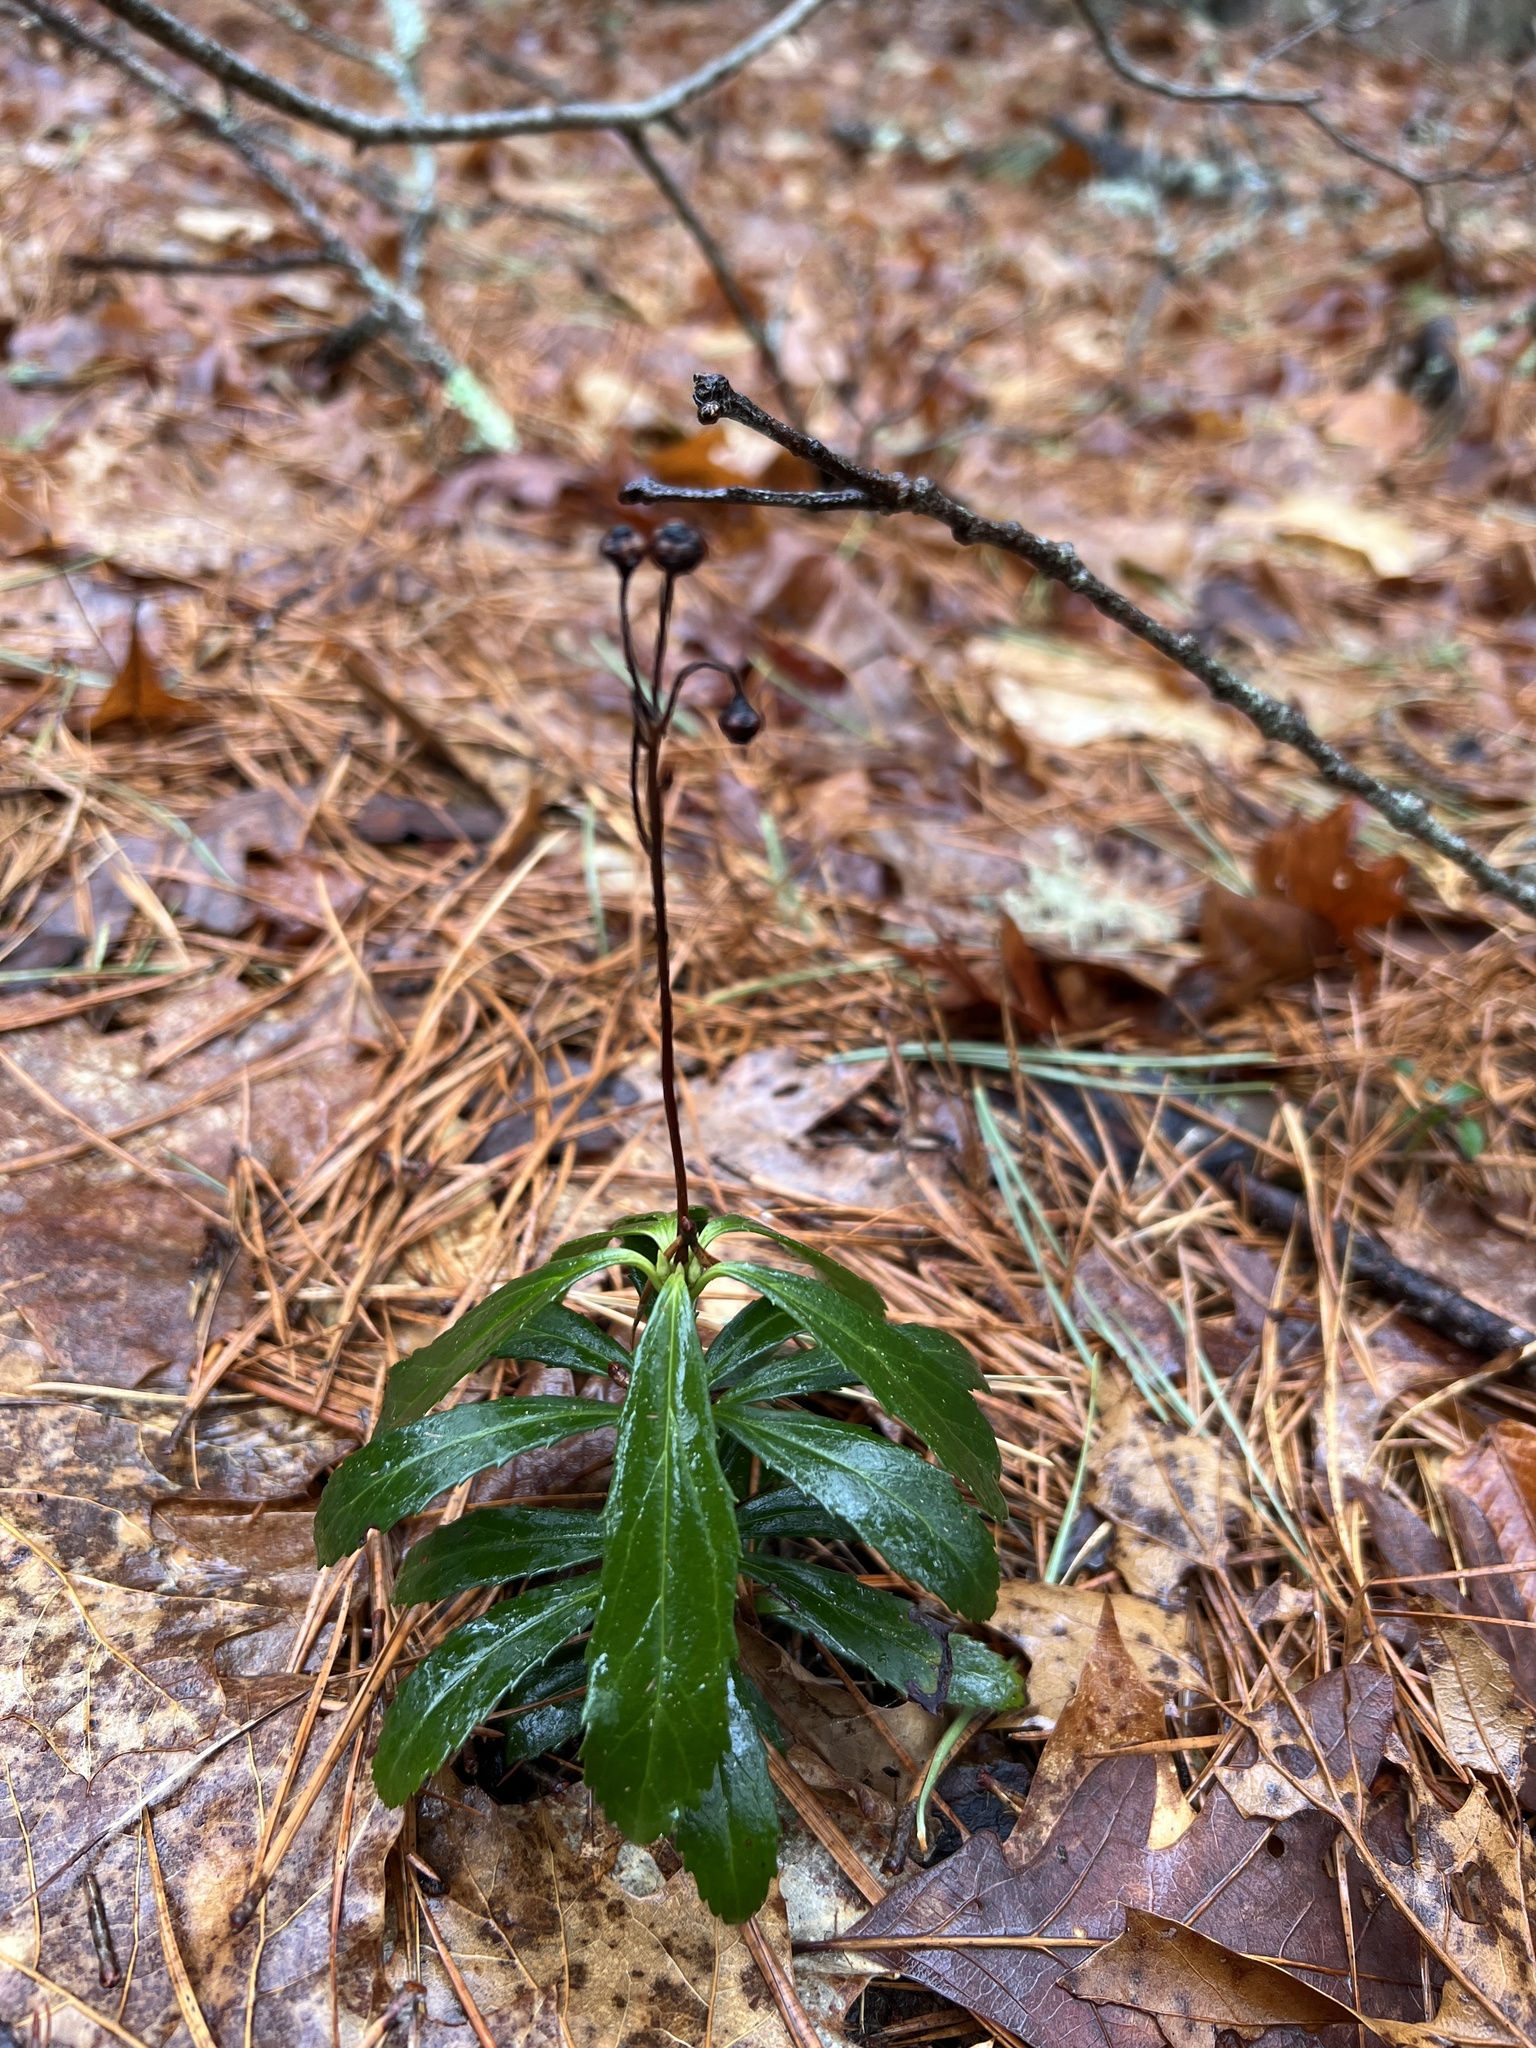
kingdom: Plantae
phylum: Tracheophyta
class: Magnoliopsida
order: Ericales
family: Ericaceae
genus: Chimaphila
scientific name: Chimaphila umbellata
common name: Pipsissewa
